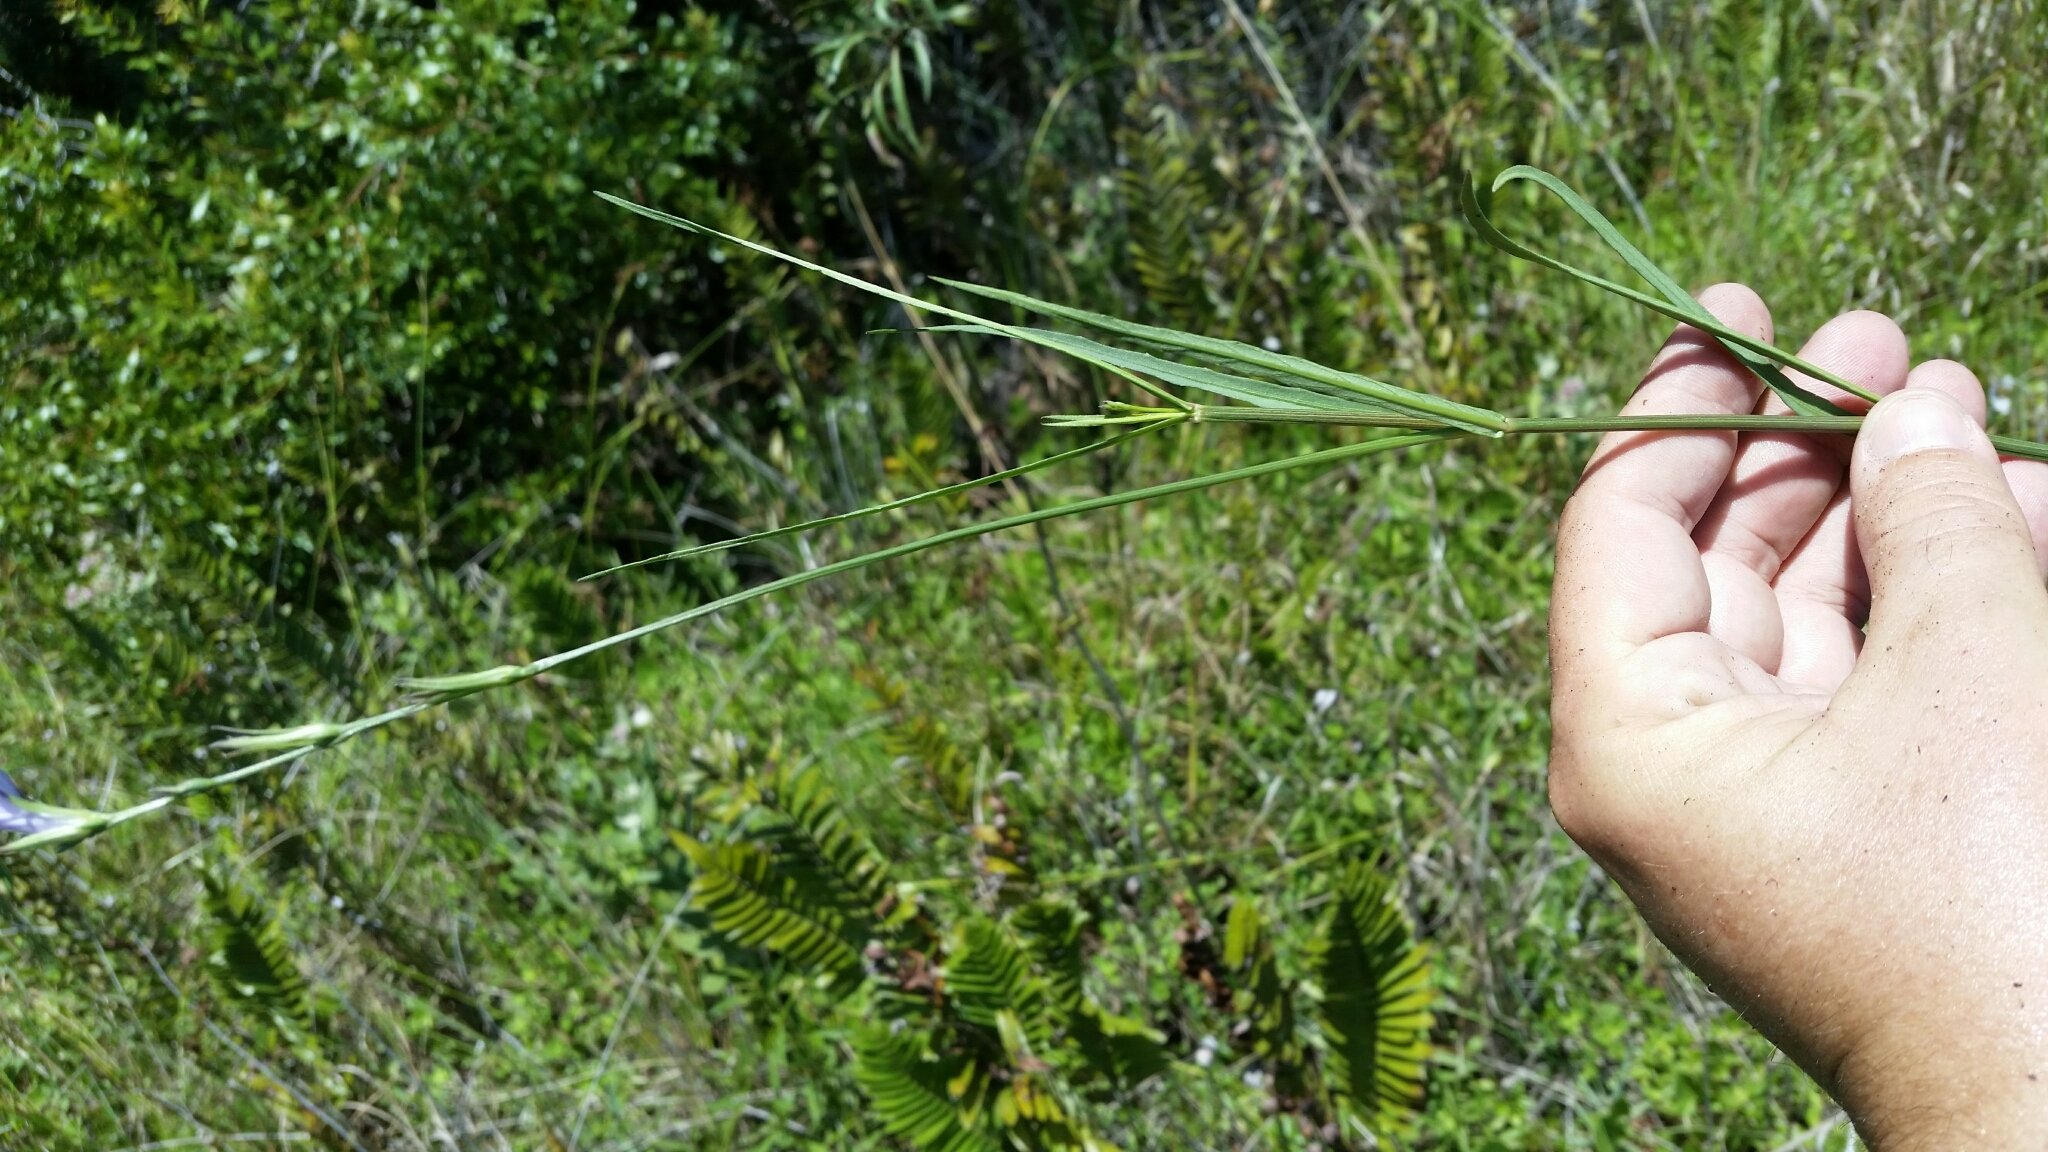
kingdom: Plantae
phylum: Tracheophyta
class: Magnoliopsida
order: Lamiales
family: Acanthaceae
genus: Dianthera
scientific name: Dianthera angusta
